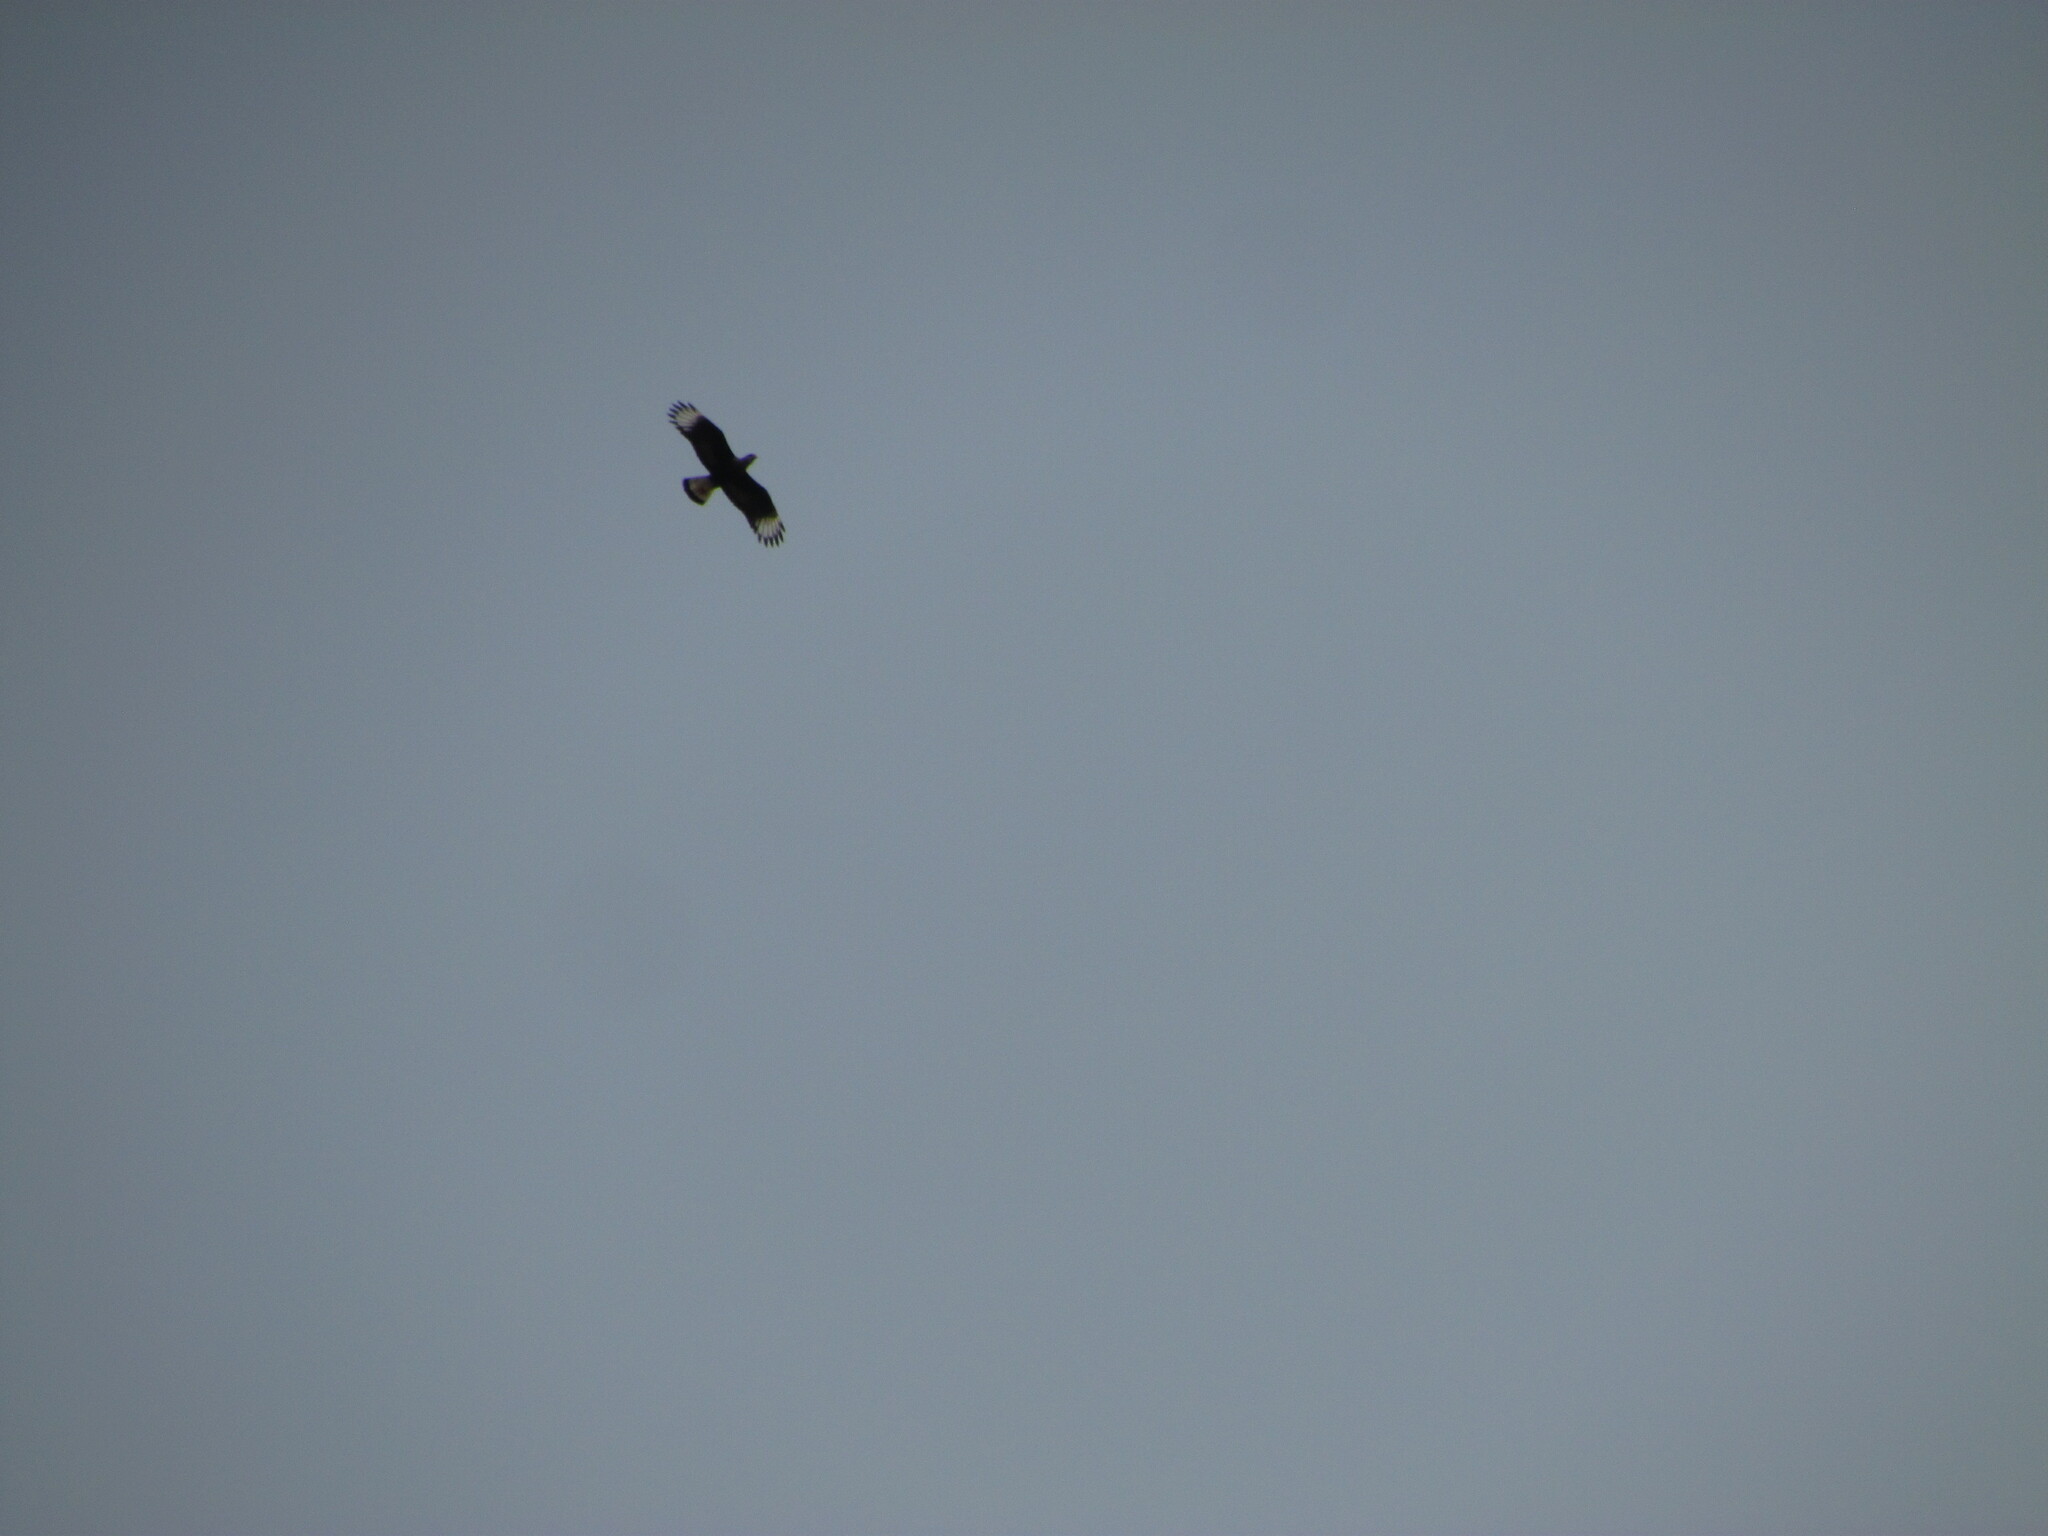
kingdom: Animalia
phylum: Chordata
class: Aves
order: Falconiformes
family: Falconidae
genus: Caracara
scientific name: Caracara plancus
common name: Southern caracara
